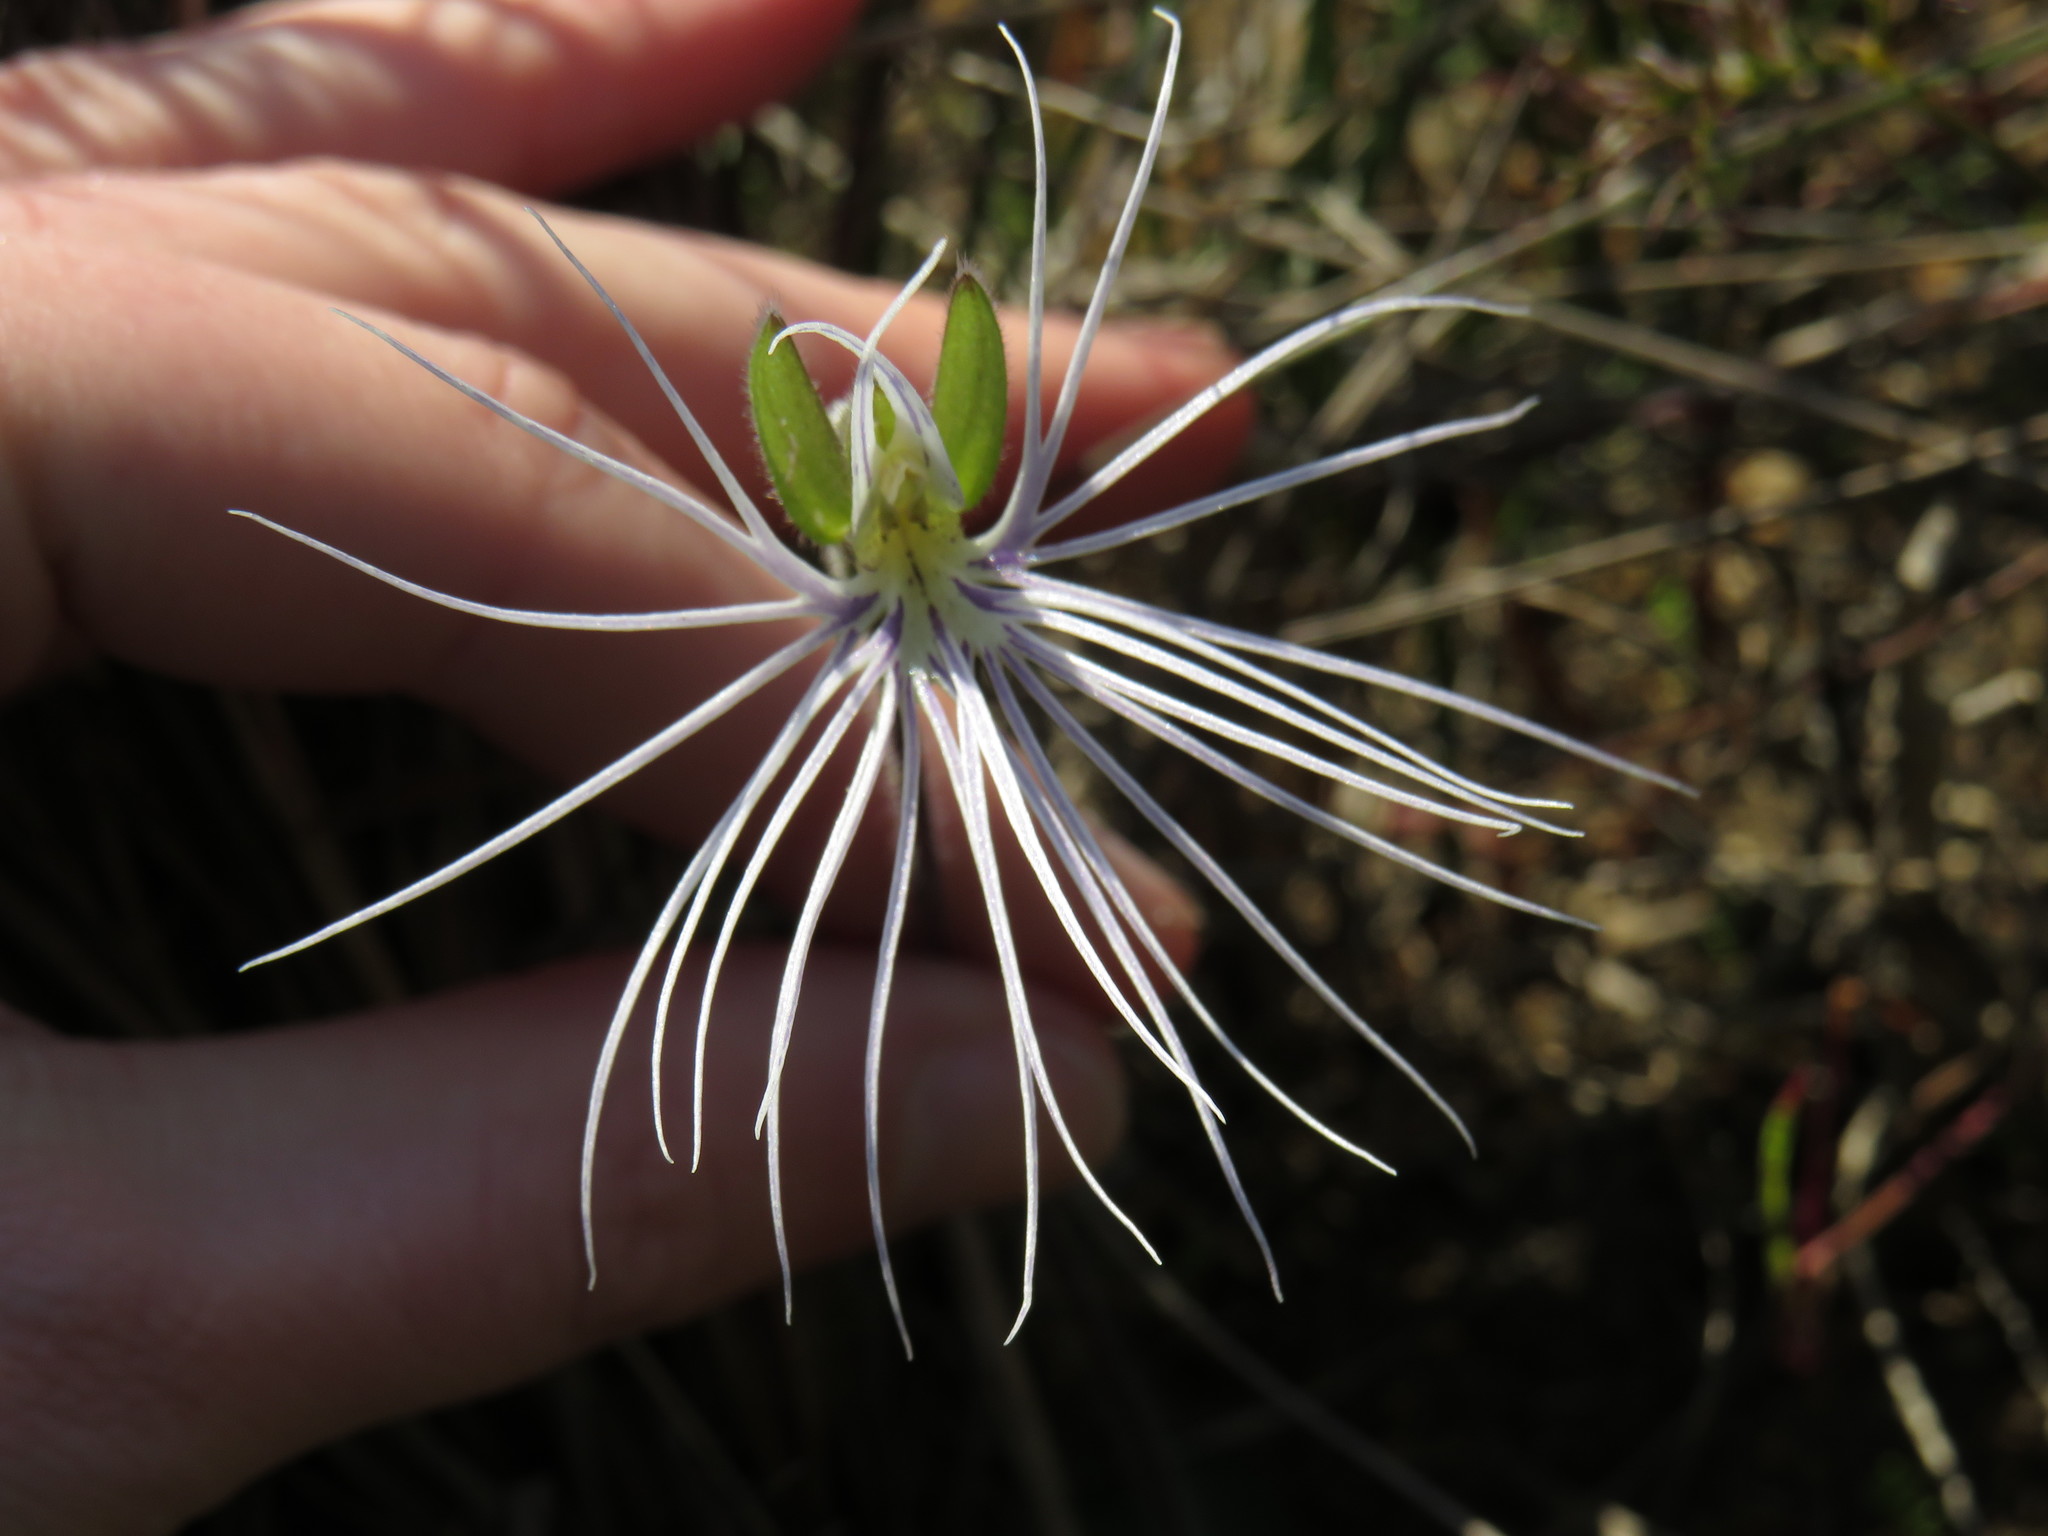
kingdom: Plantae
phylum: Tracheophyta
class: Liliopsida
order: Asparagales
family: Orchidaceae
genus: Holothrix
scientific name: Holothrix burmanniana
